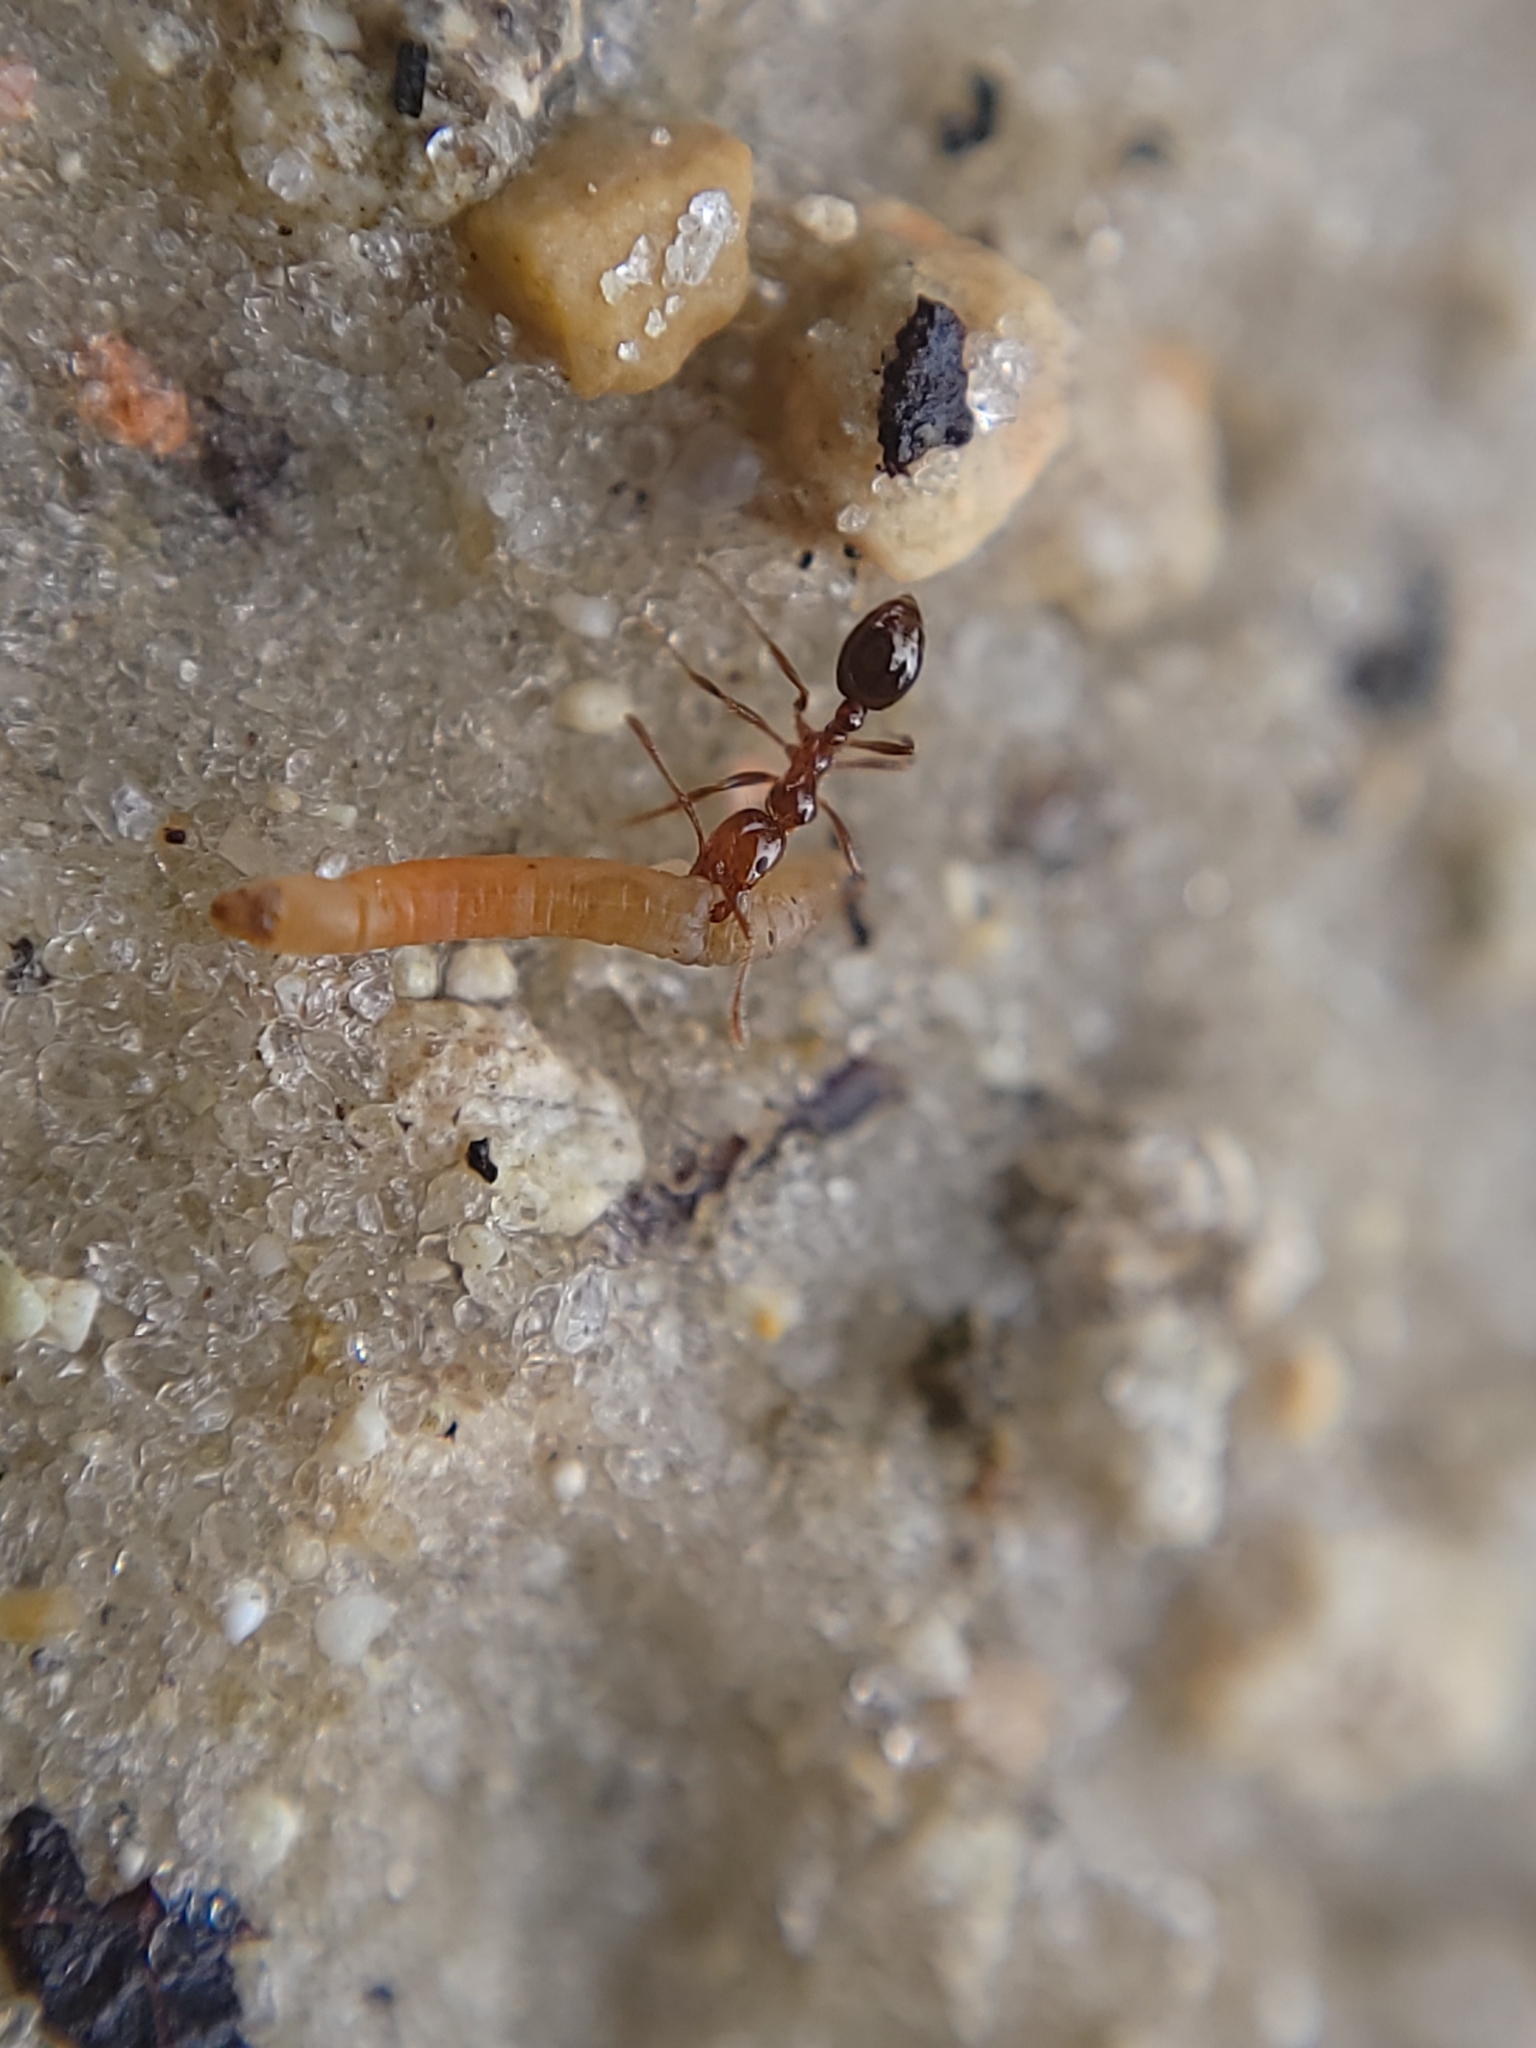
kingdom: Animalia
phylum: Arthropoda
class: Insecta
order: Hymenoptera
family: Formicidae
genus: Solenopsis
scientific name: Solenopsis invicta
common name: Red imported fire ant
